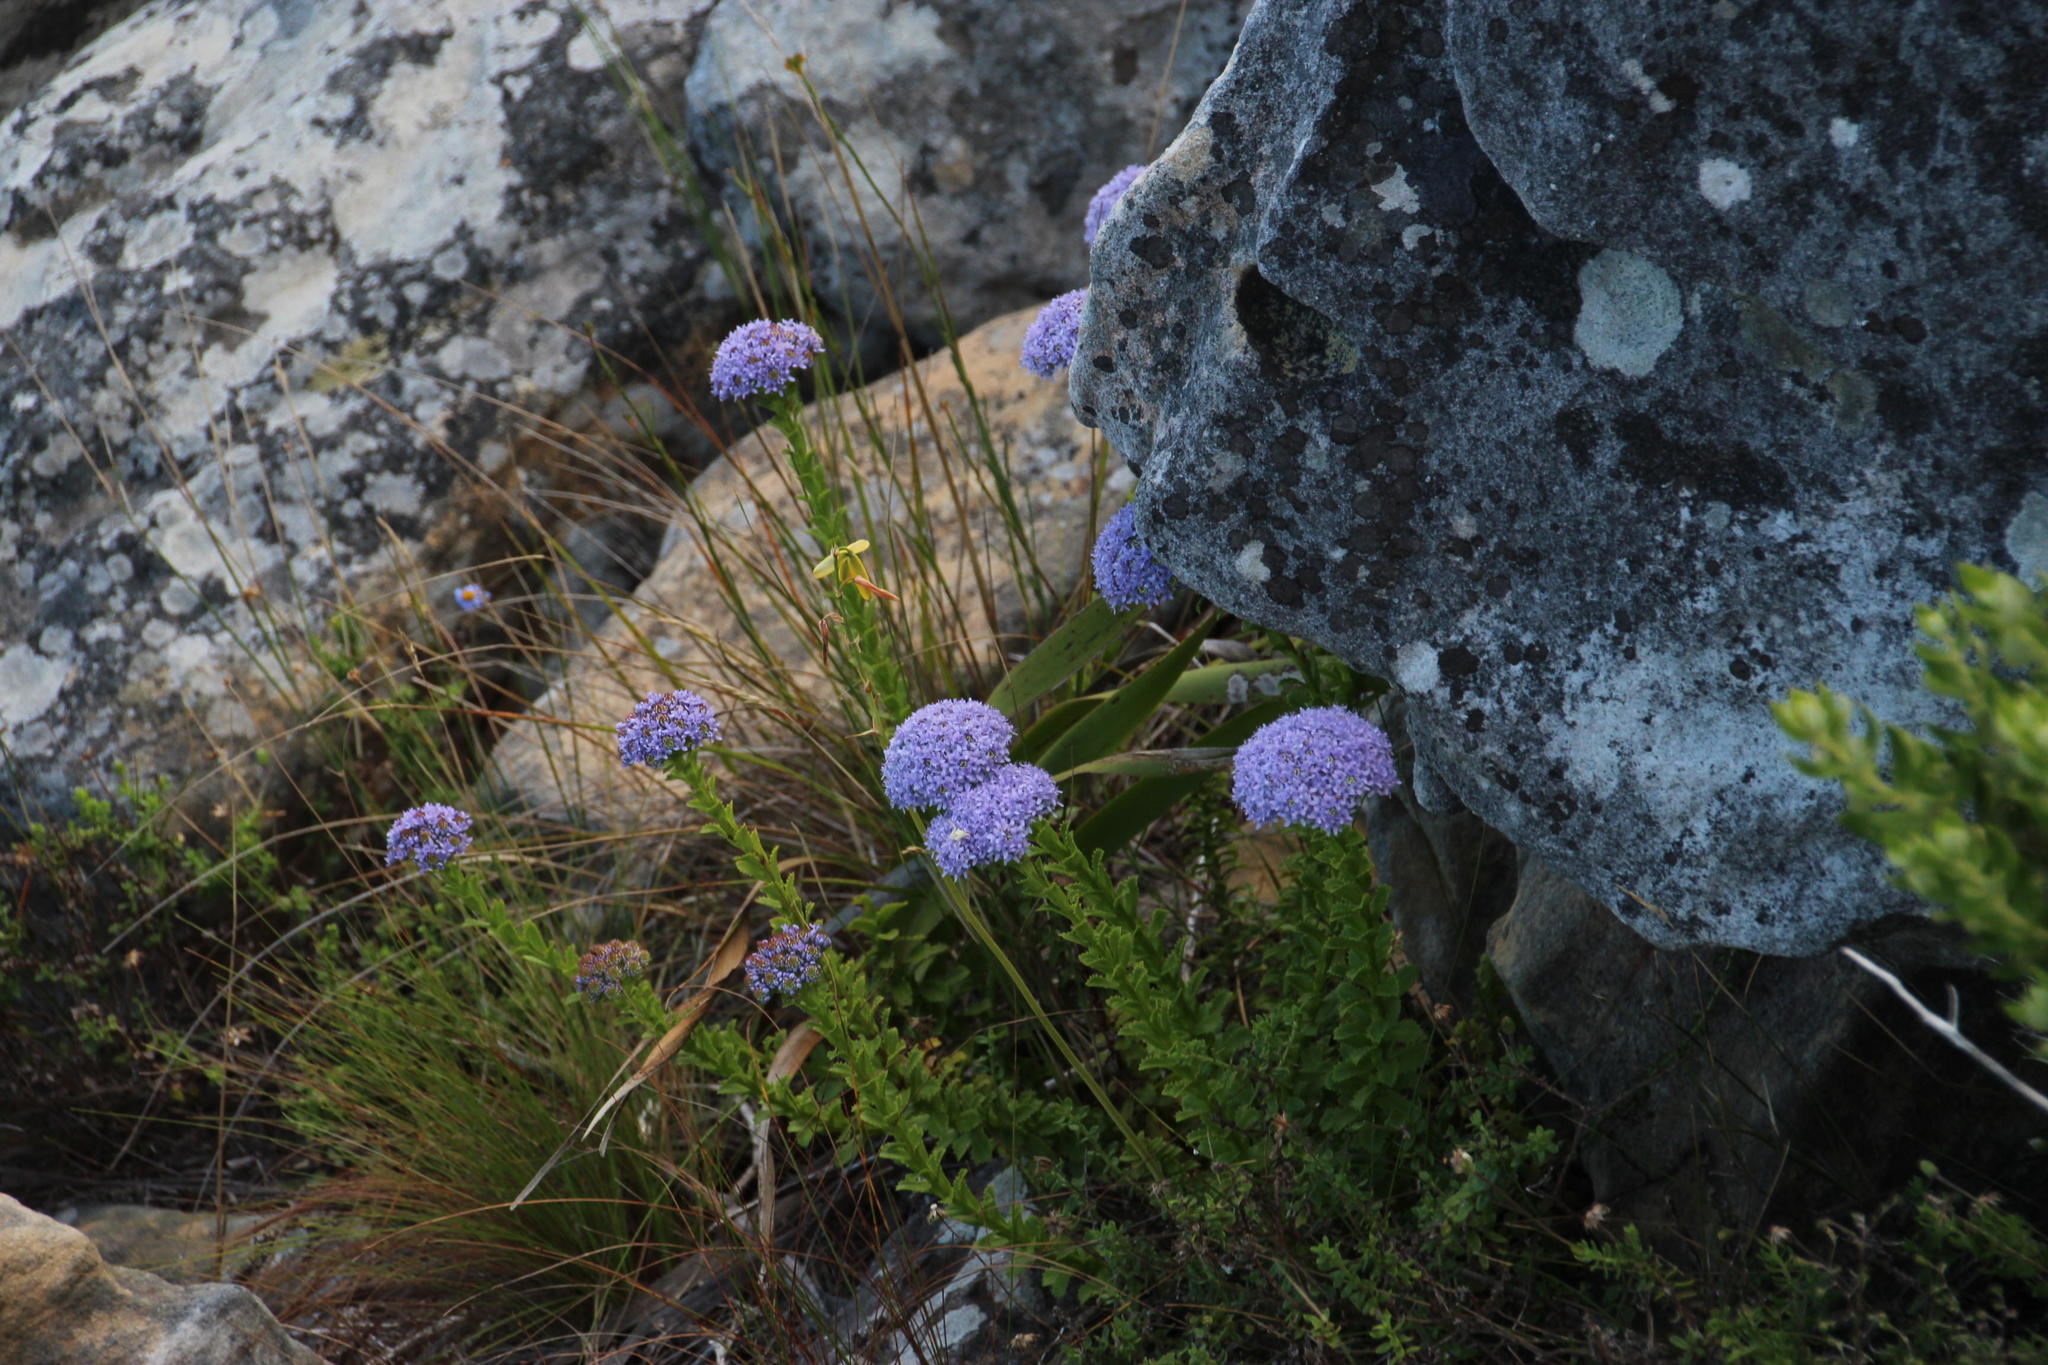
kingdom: Plantae
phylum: Tracheophyta
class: Magnoliopsida
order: Lamiales
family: Scrophulariaceae
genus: Pseudoselago
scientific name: Pseudoselago serrata
